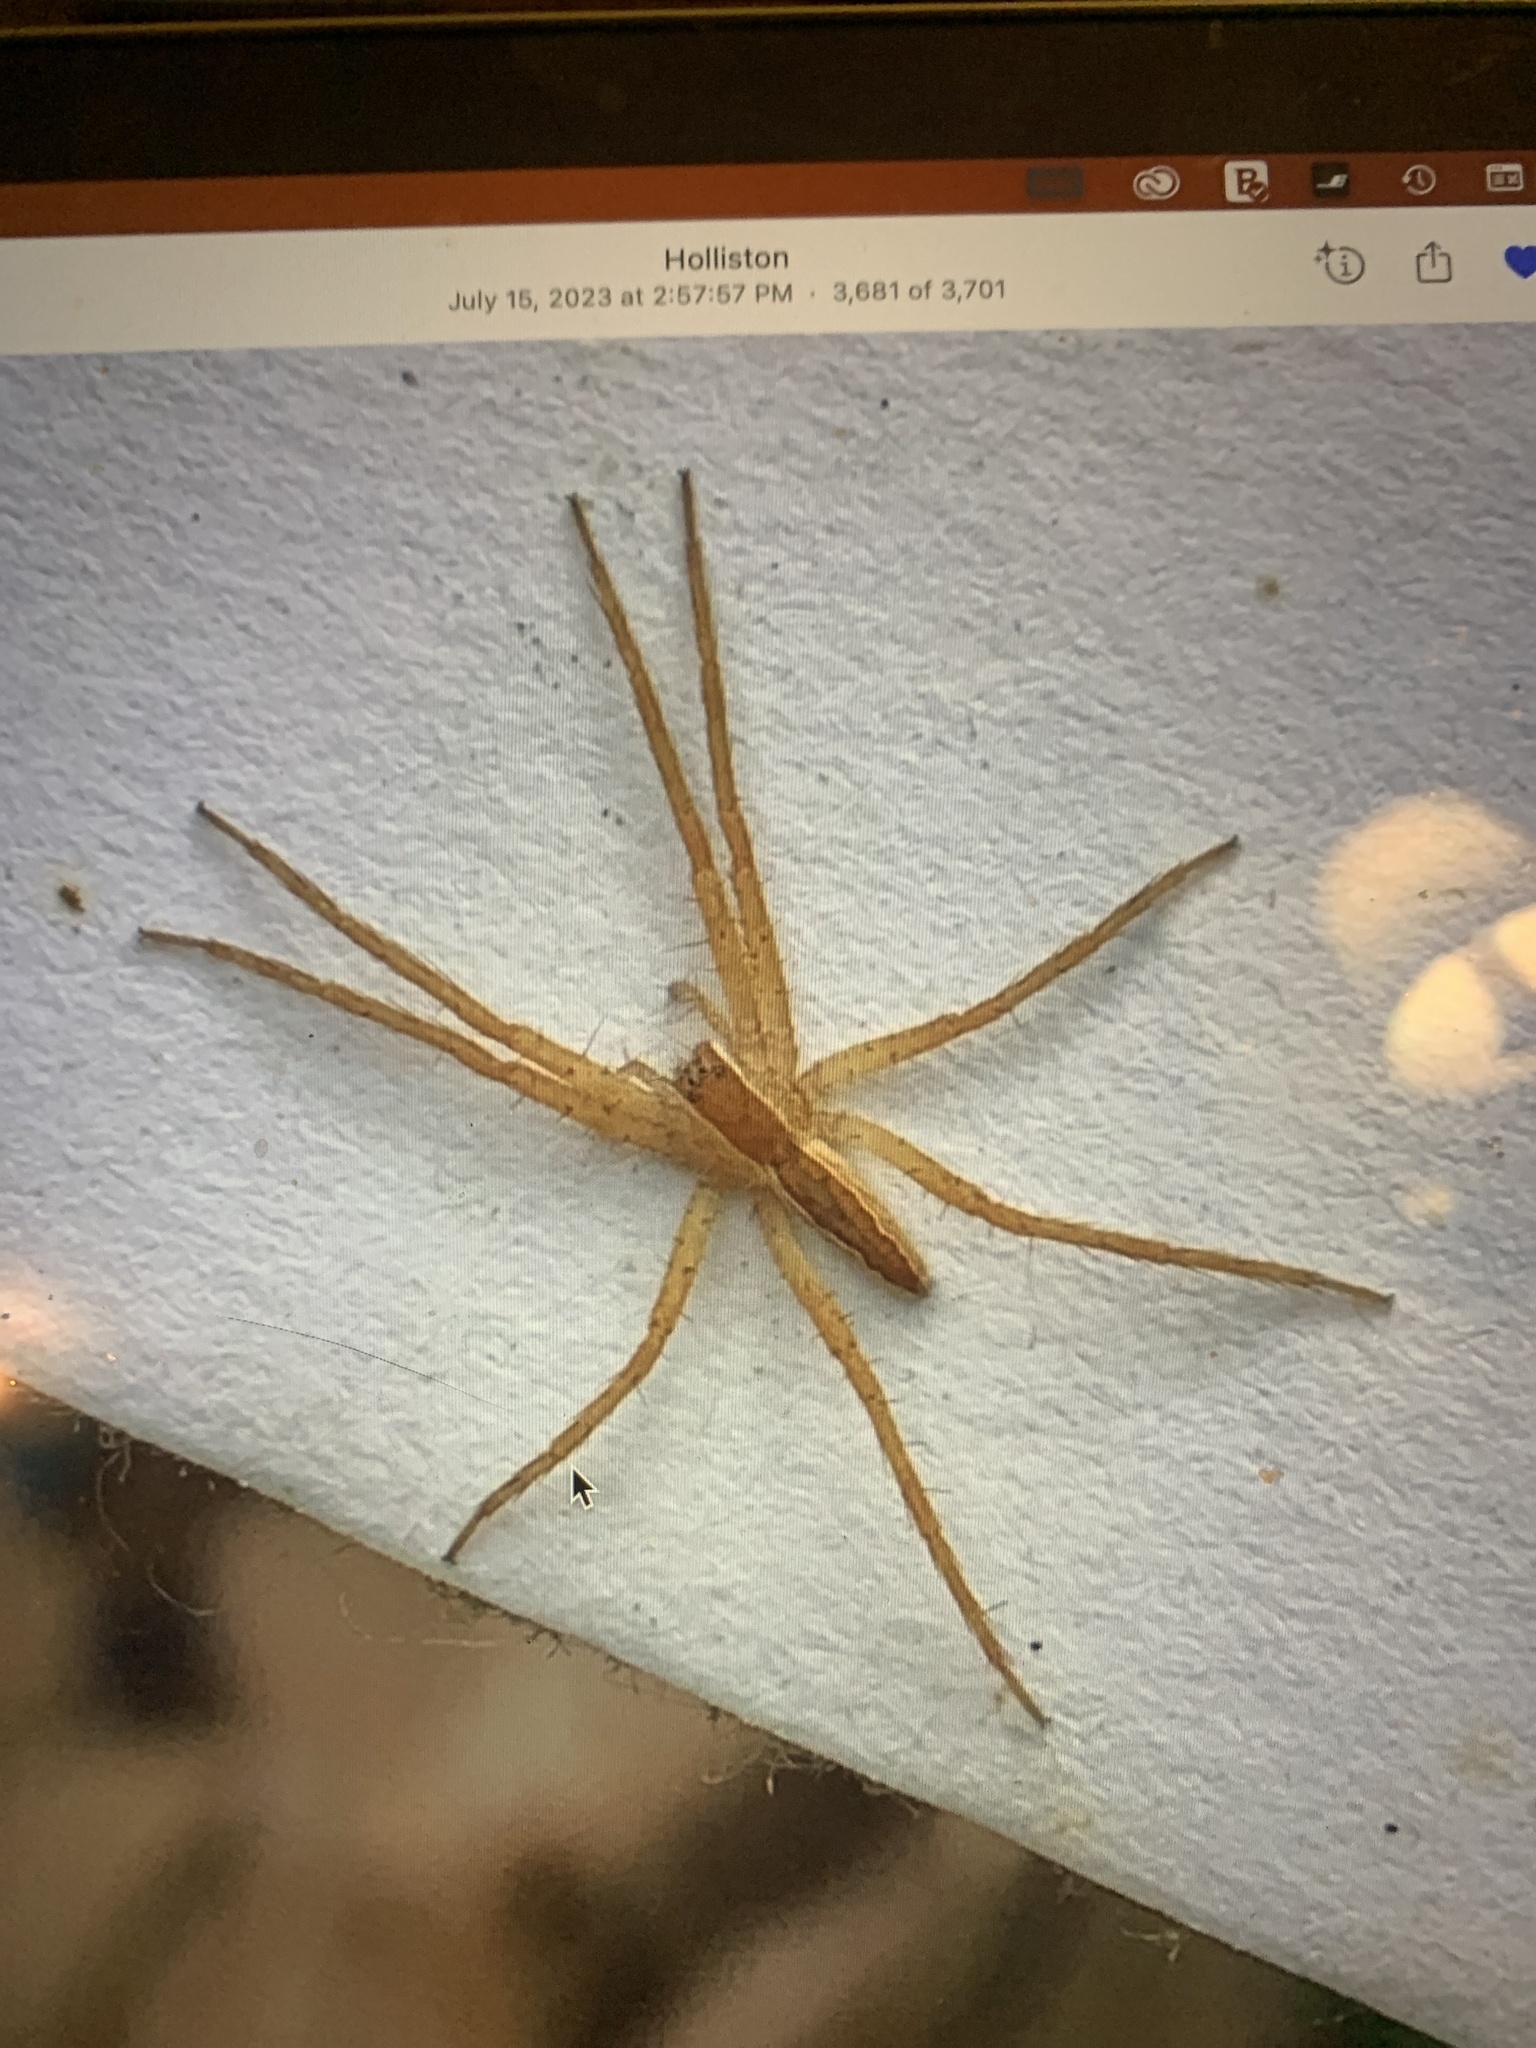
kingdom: Animalia
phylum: Arthropoda
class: Arachnida
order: Araneae
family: Pisauridae
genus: Pisaurina
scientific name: Pisaurina mira
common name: American nursery web spider
